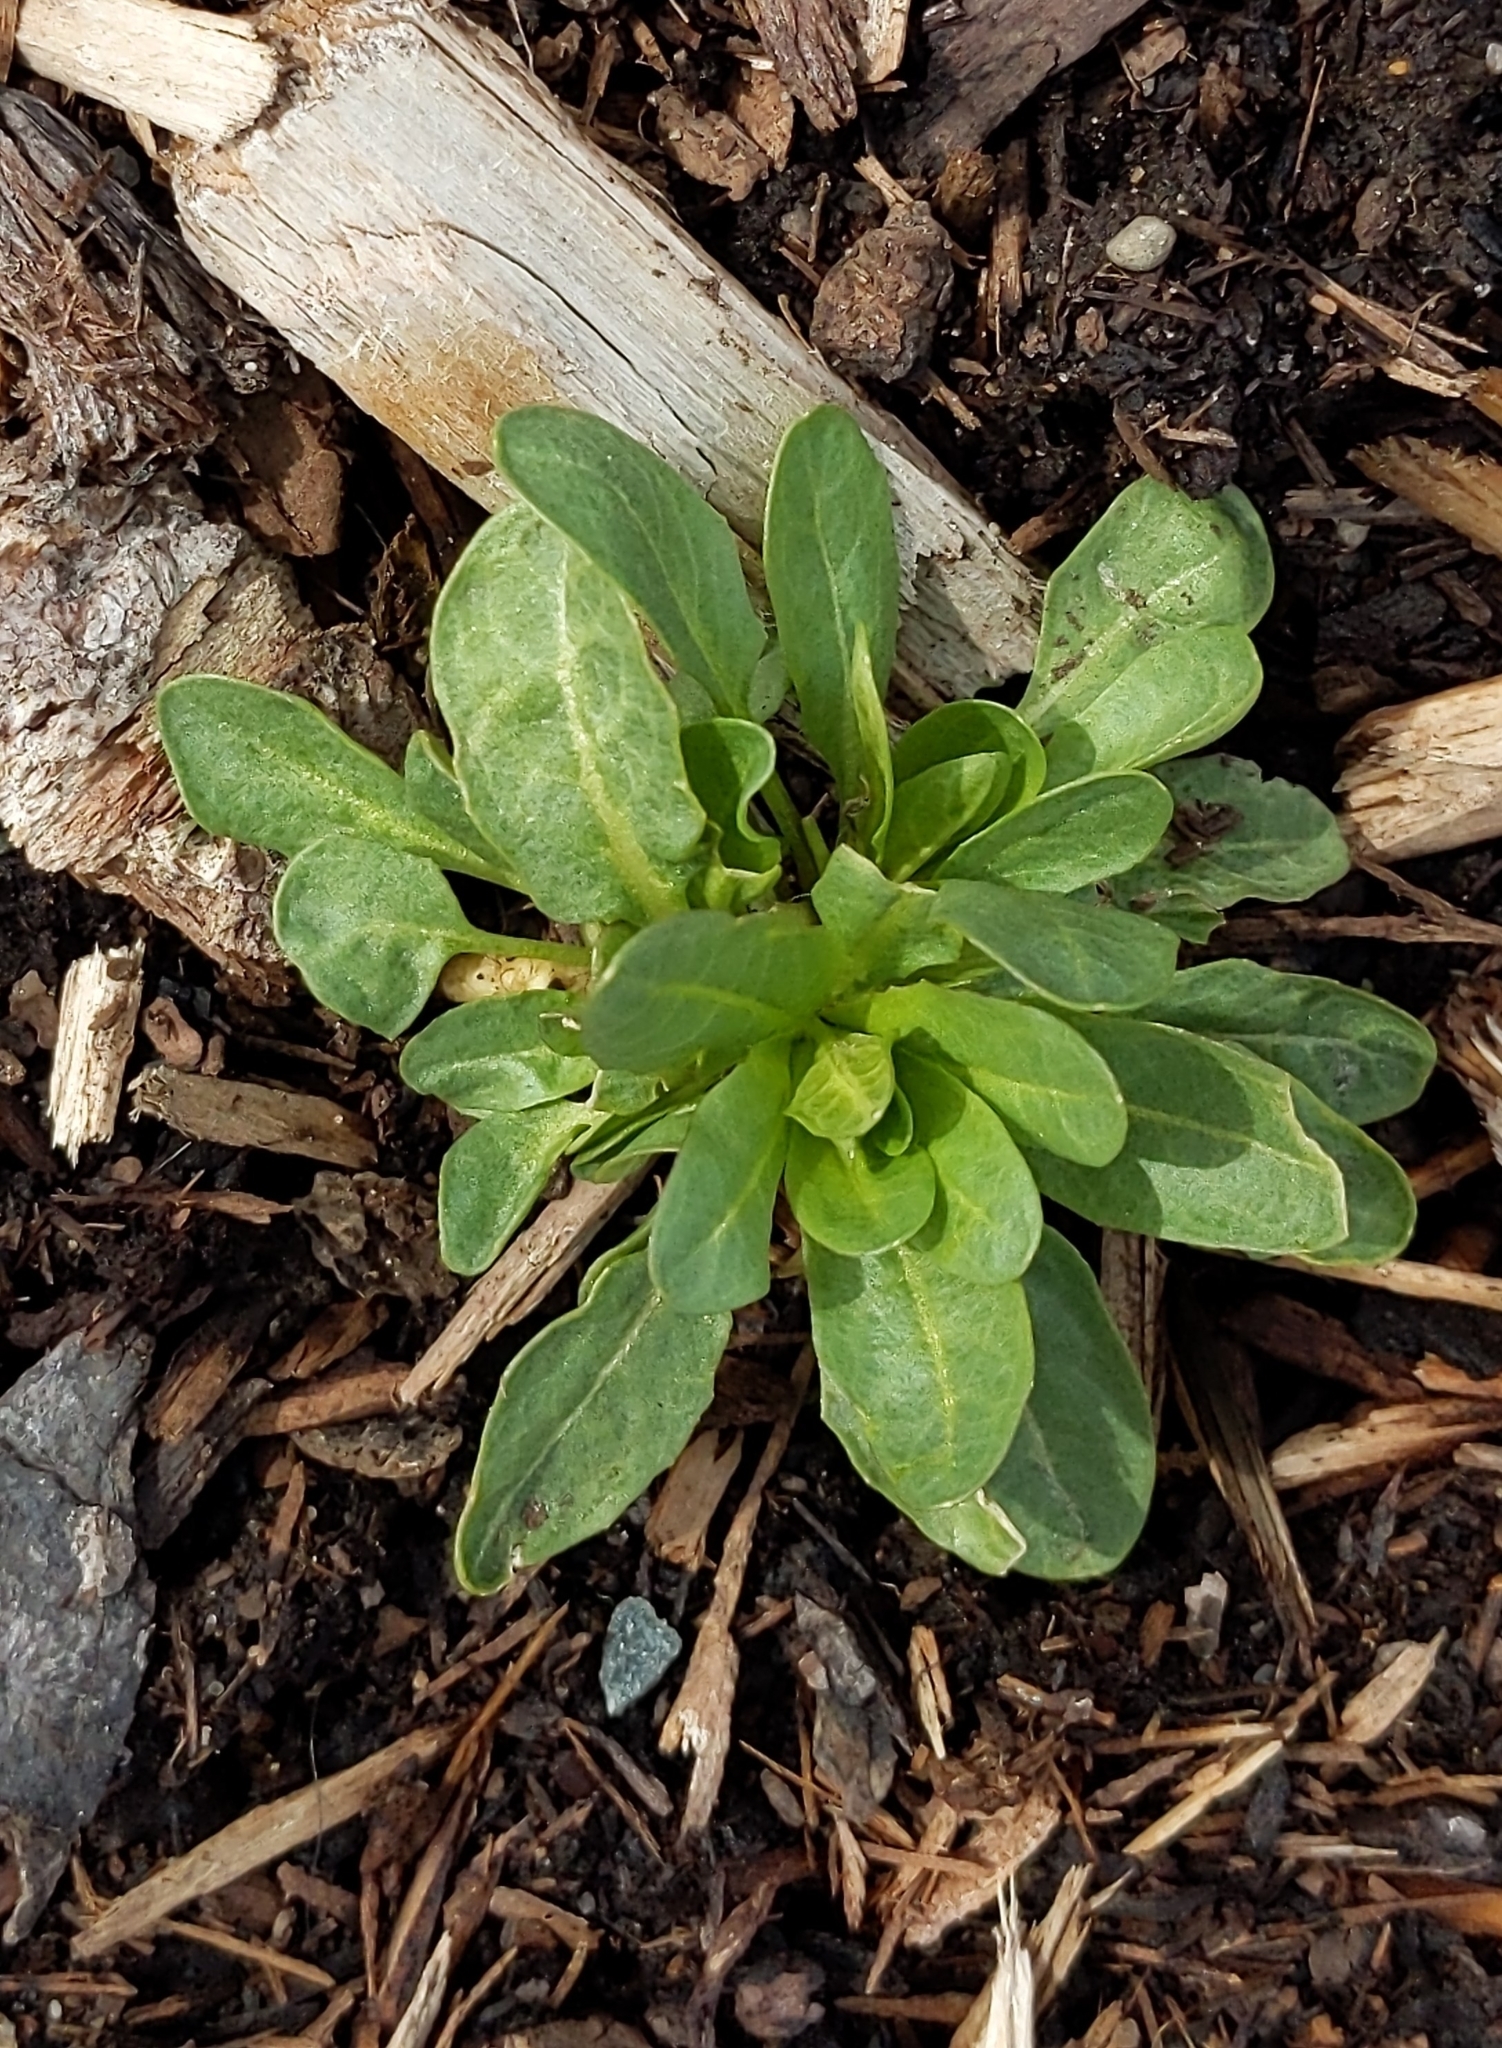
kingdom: Plantae
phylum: Tracheophyta
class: Magnoliopsida
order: Brassicales
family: Brassicaceae
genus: Thlaspi
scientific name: Thlaspi arvense
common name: Field pennycress
